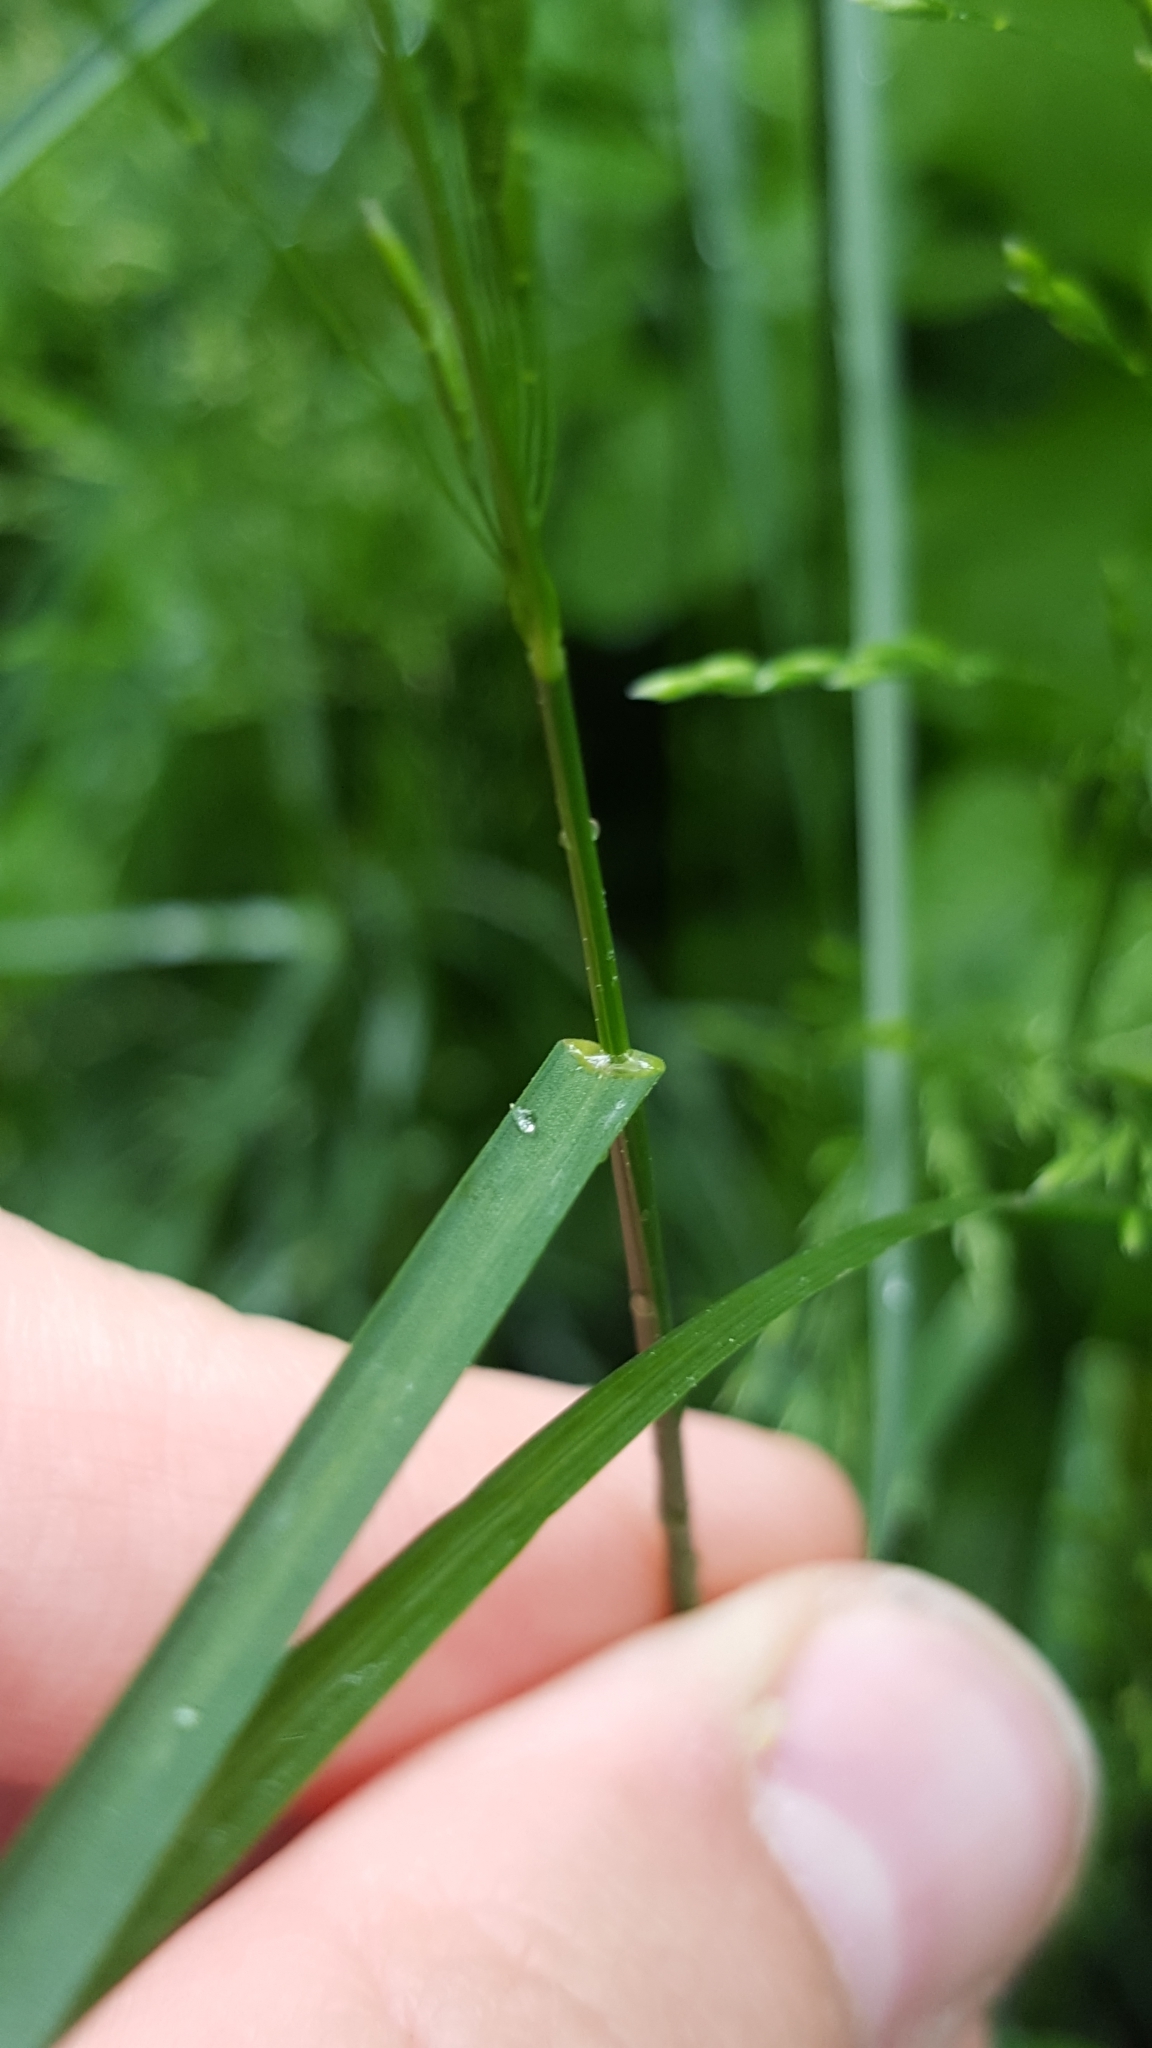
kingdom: Plantae
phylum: Tracheophyta
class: Liliopsida
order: Poales
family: Poaceae
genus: Poa
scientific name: Poa nemoralis
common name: Wood bluegrass
